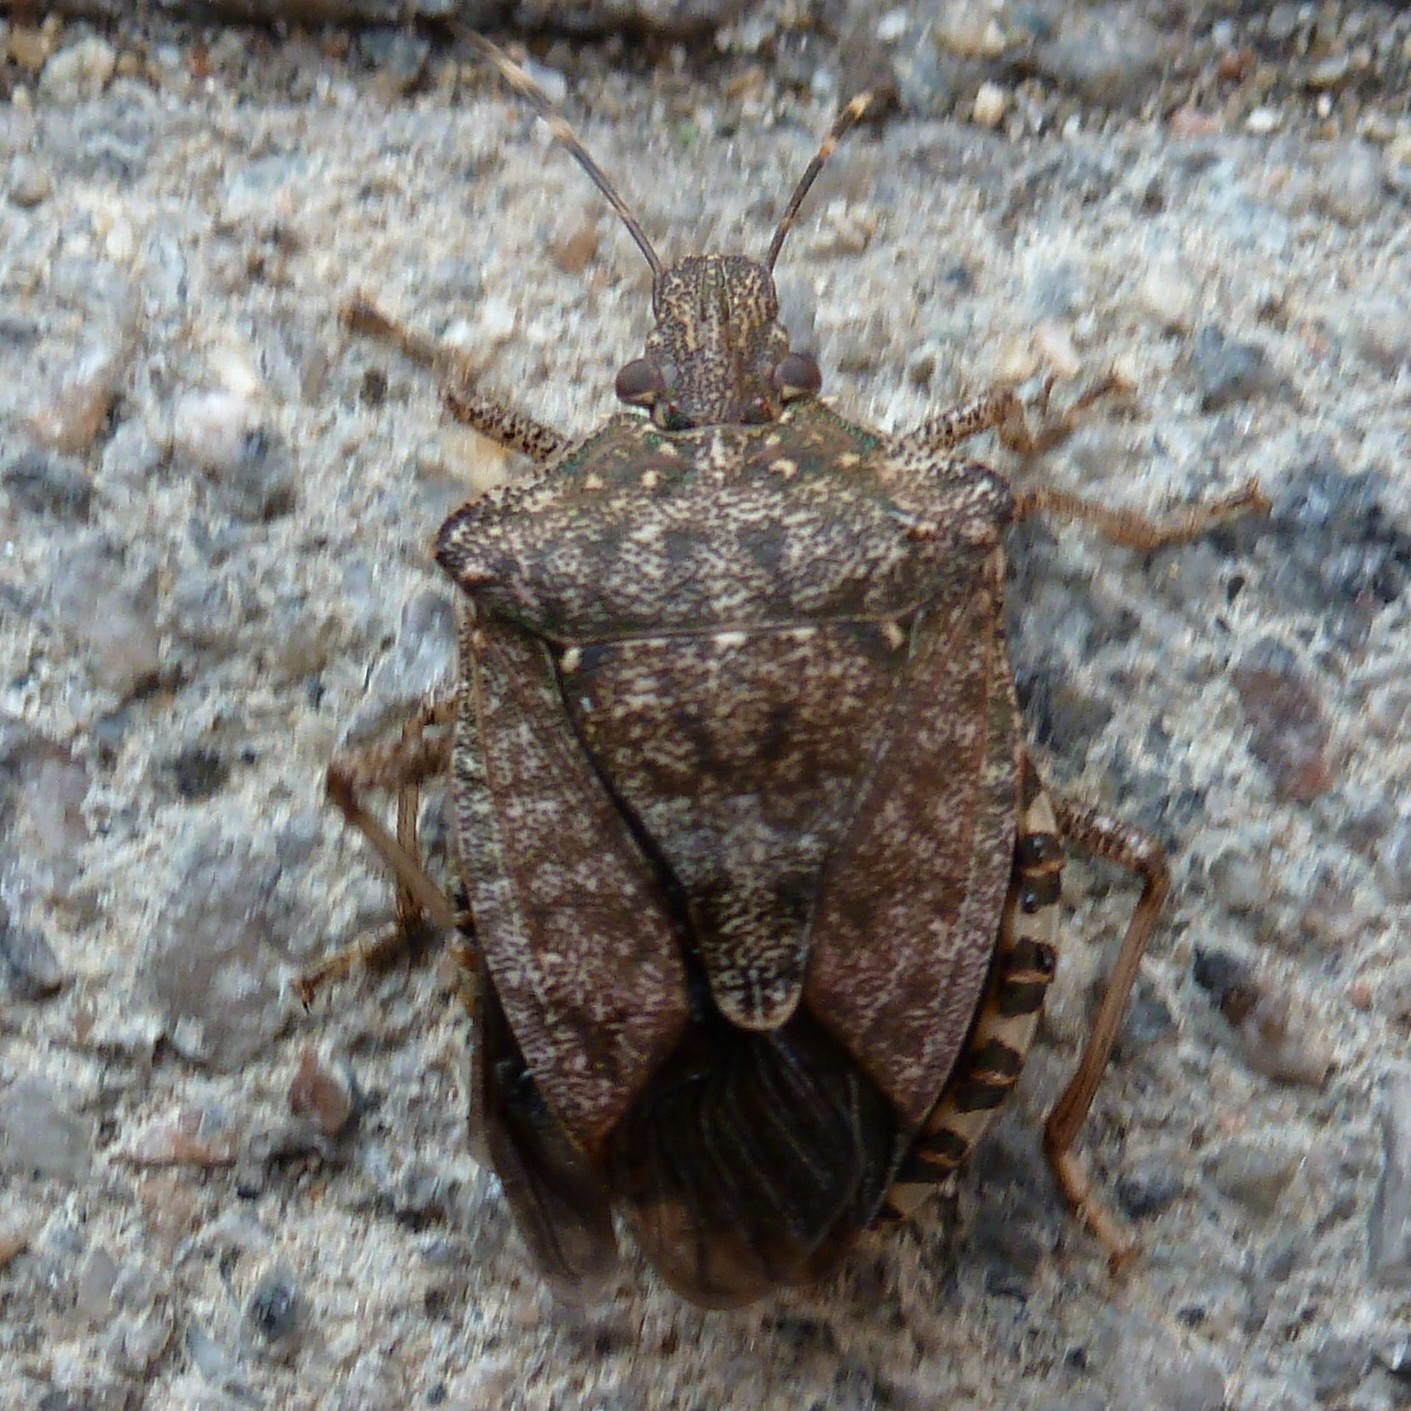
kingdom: Animalia
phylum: Arthropoda
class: Insecta
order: Hemiptera
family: Pentatomidae
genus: Halyomorpha
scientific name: Halyomorpha halys
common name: Brown marmorated stink bug
